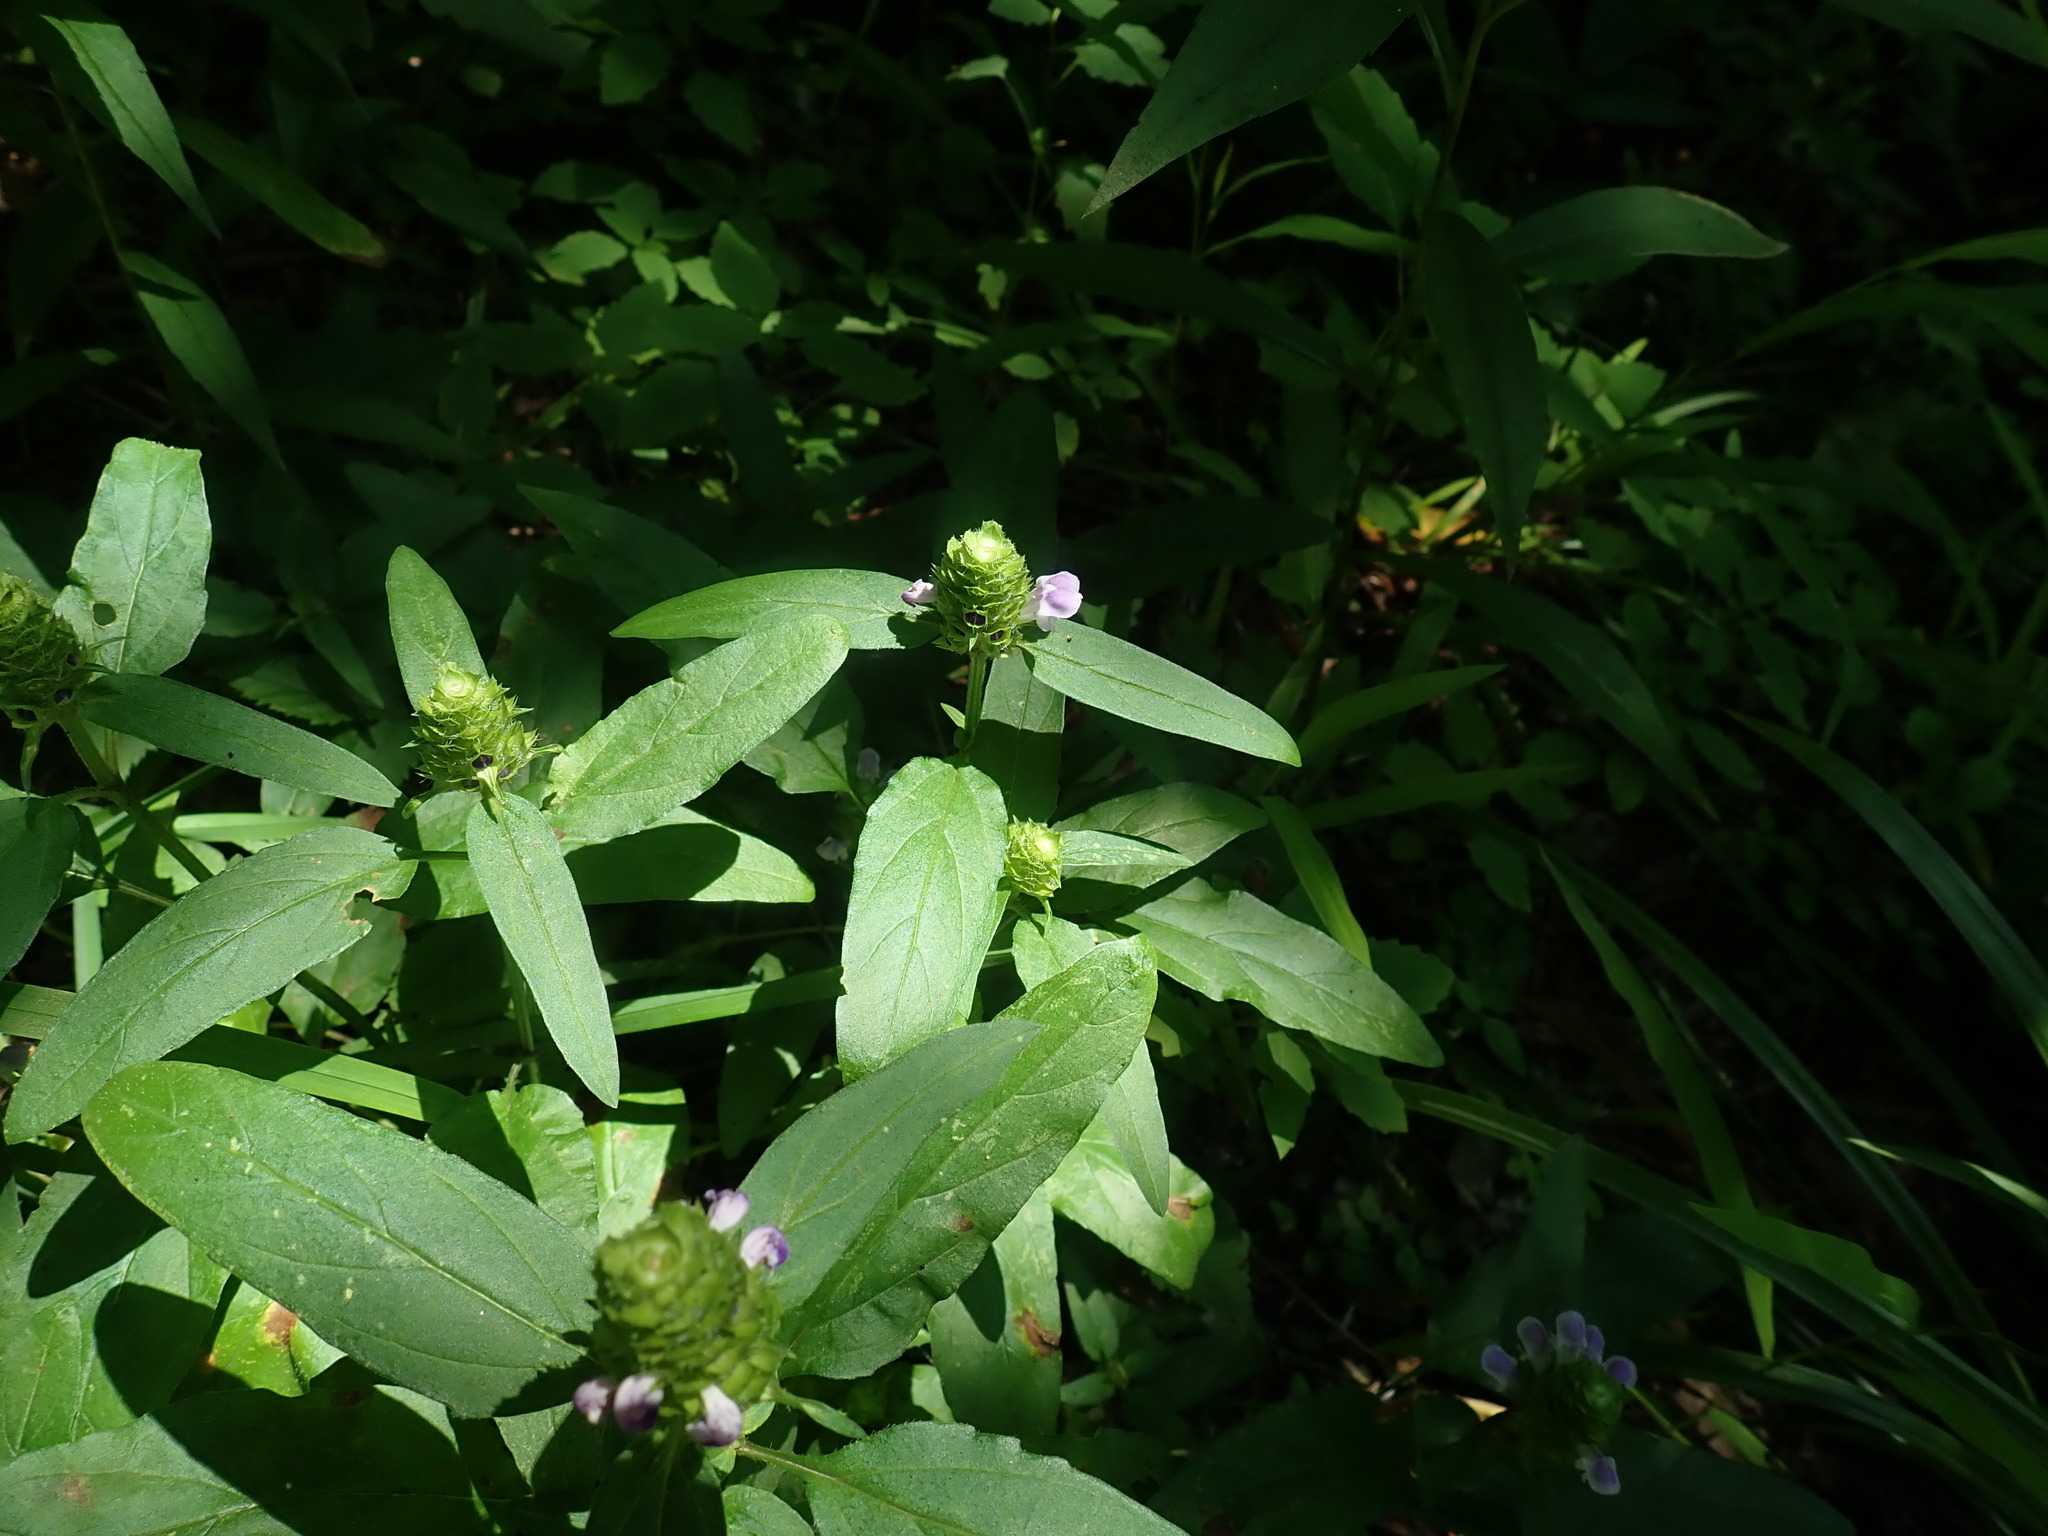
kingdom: Plantae
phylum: Tracheophyta
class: Magnoliopsida
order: Lamiales
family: Lamiaceae
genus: Prunella
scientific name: Prunella vulgaris
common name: Heal-all
